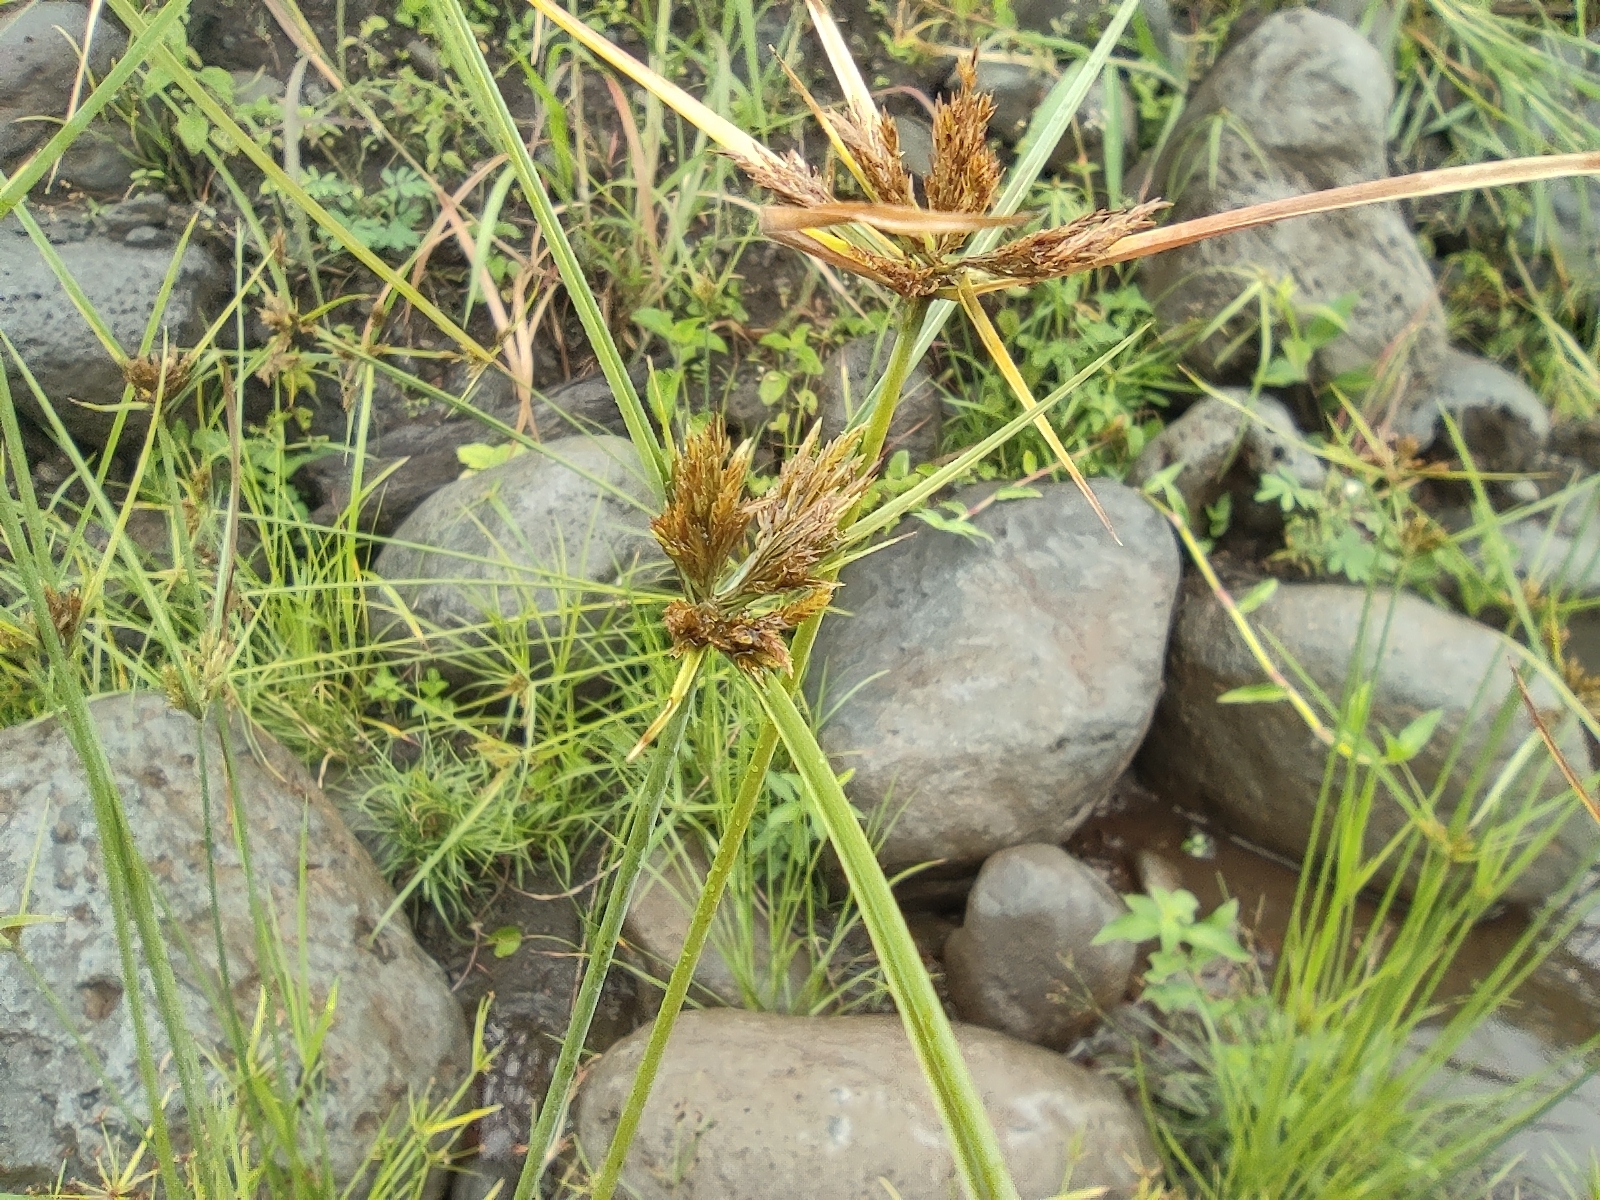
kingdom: Plantae
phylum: Tracheophyta
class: Liliopsida
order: Poales
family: Cyperaceae
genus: Cyperus
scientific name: Cyperus polystachyos
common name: Bunchy flat sedge
